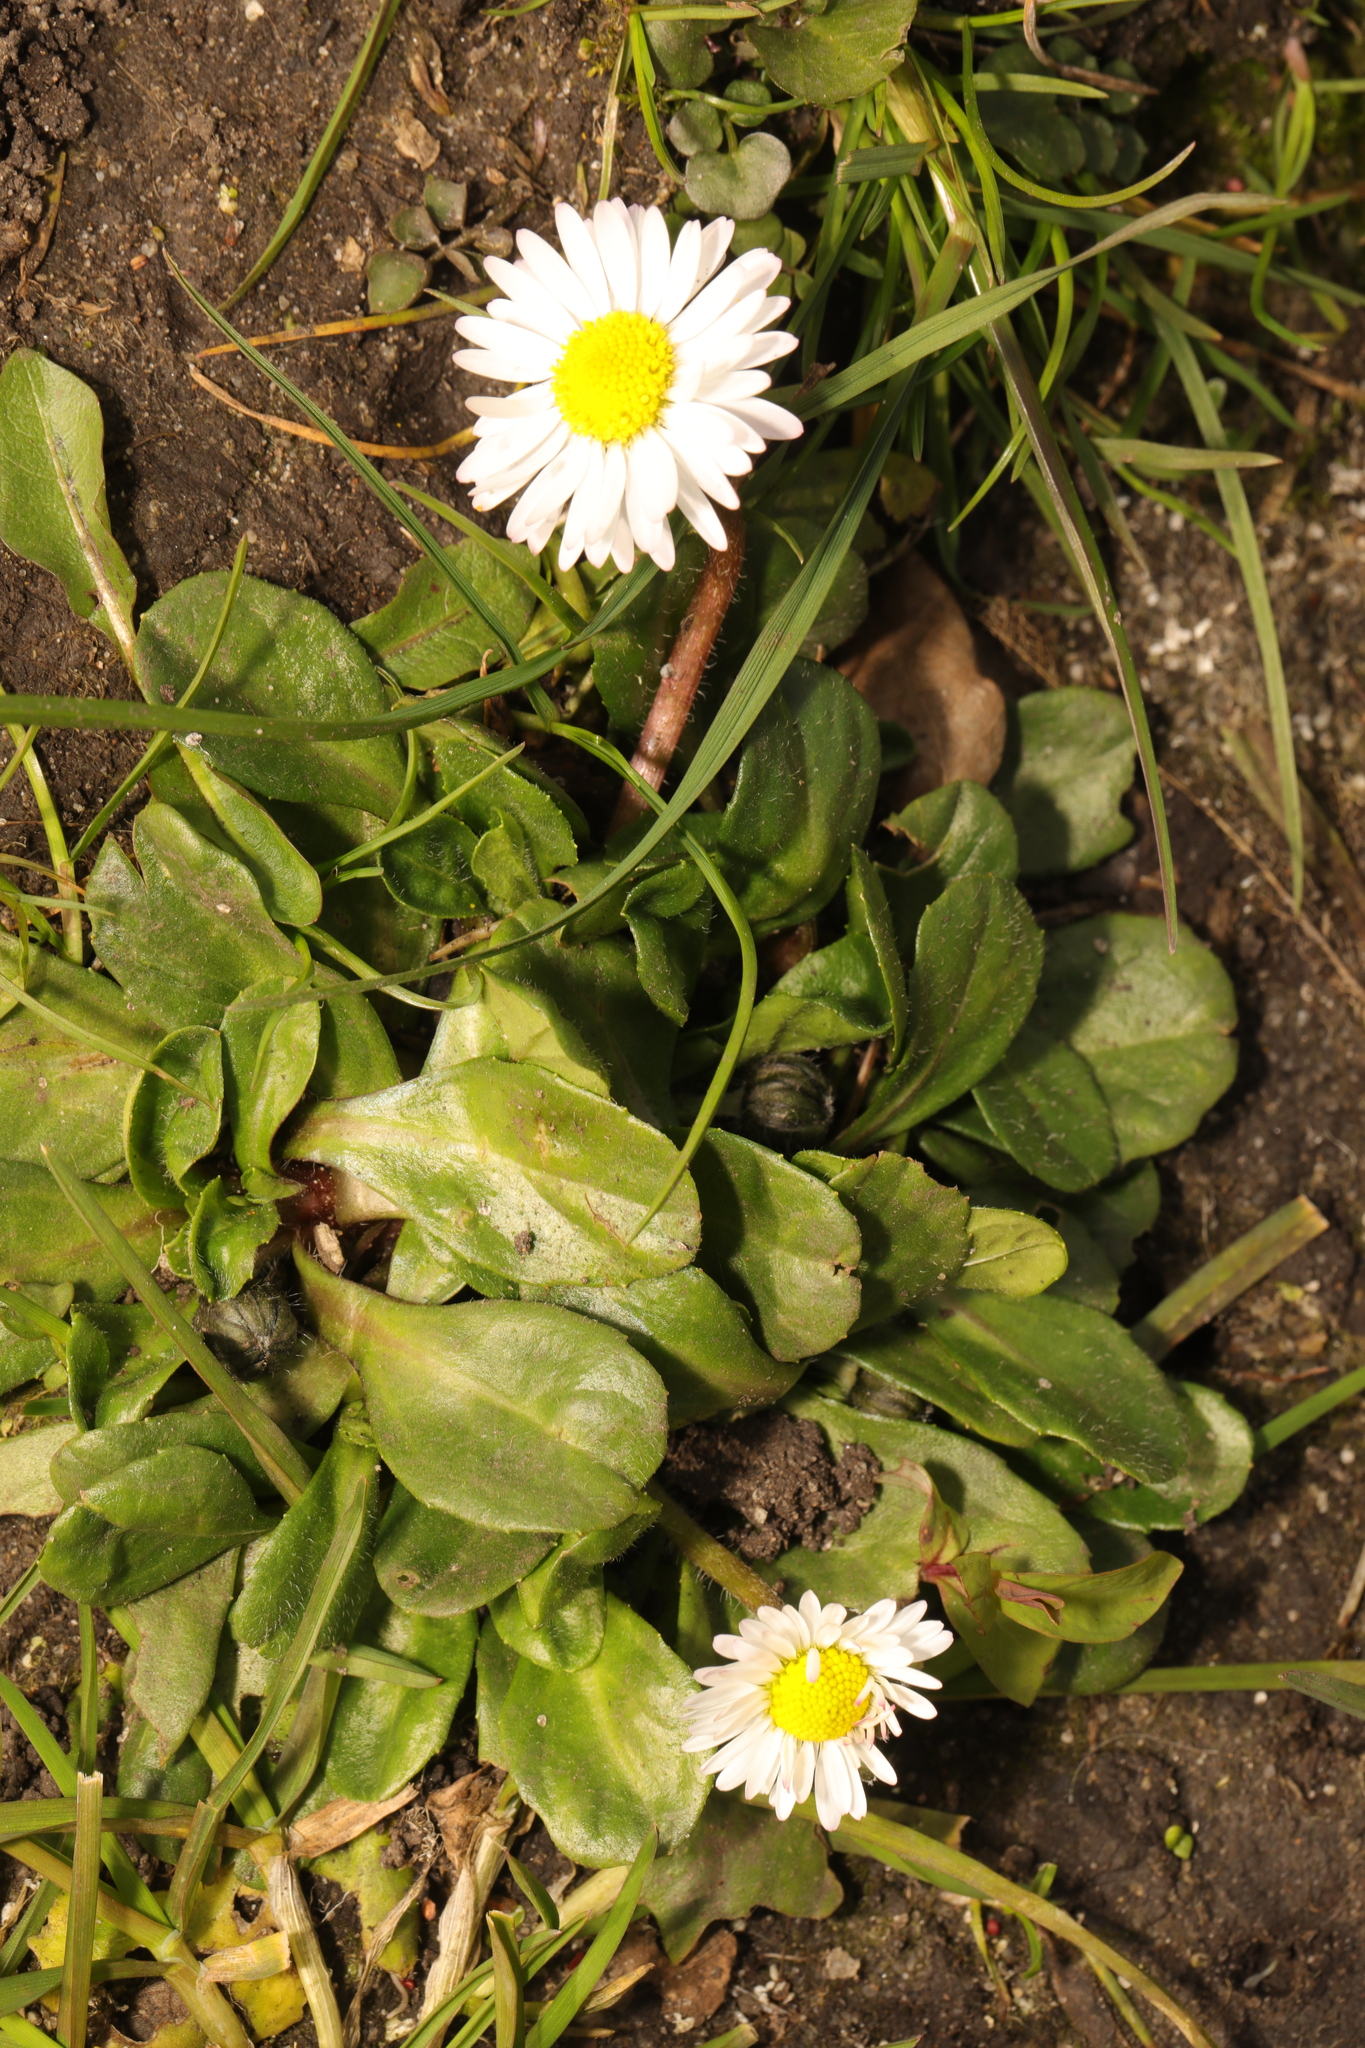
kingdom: Plantae
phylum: Tracheophyta
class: Magnoliopsida
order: Asterales
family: Asteraceae
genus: Bellis
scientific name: Bellis perennis
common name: Lawndaisy
